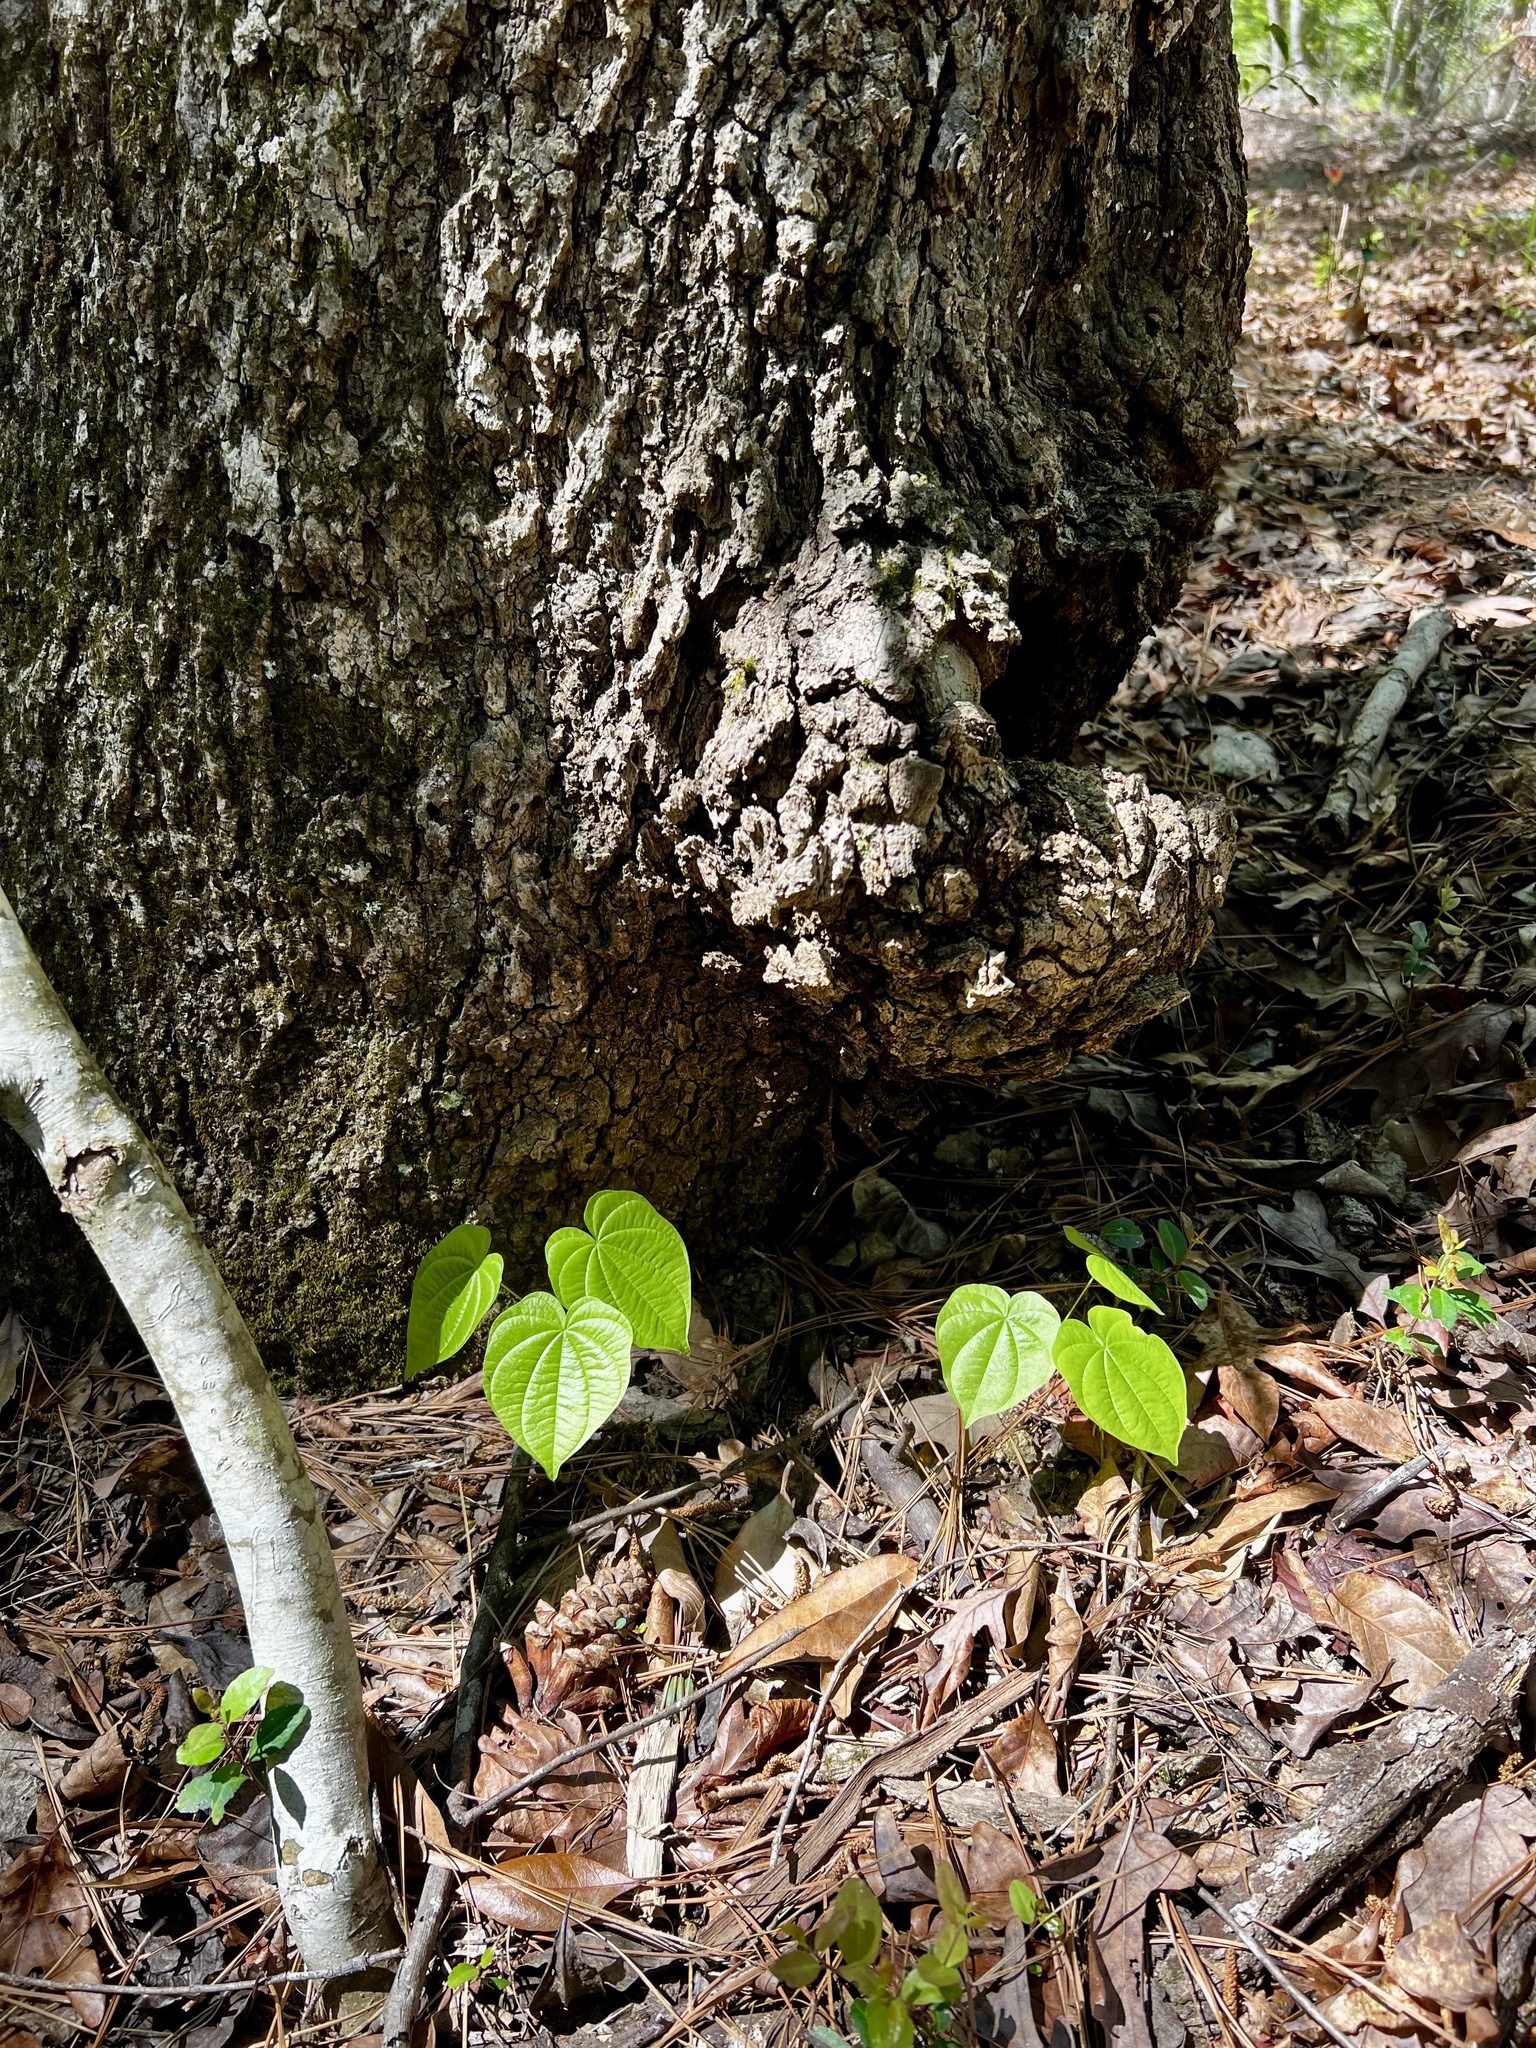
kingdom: Plantae
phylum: Tracheophyta
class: Liliopsida
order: Dioscoreales
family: Dioscoreaceae
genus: Dioscorea
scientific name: Dioscorea villosa
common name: Wild yam
